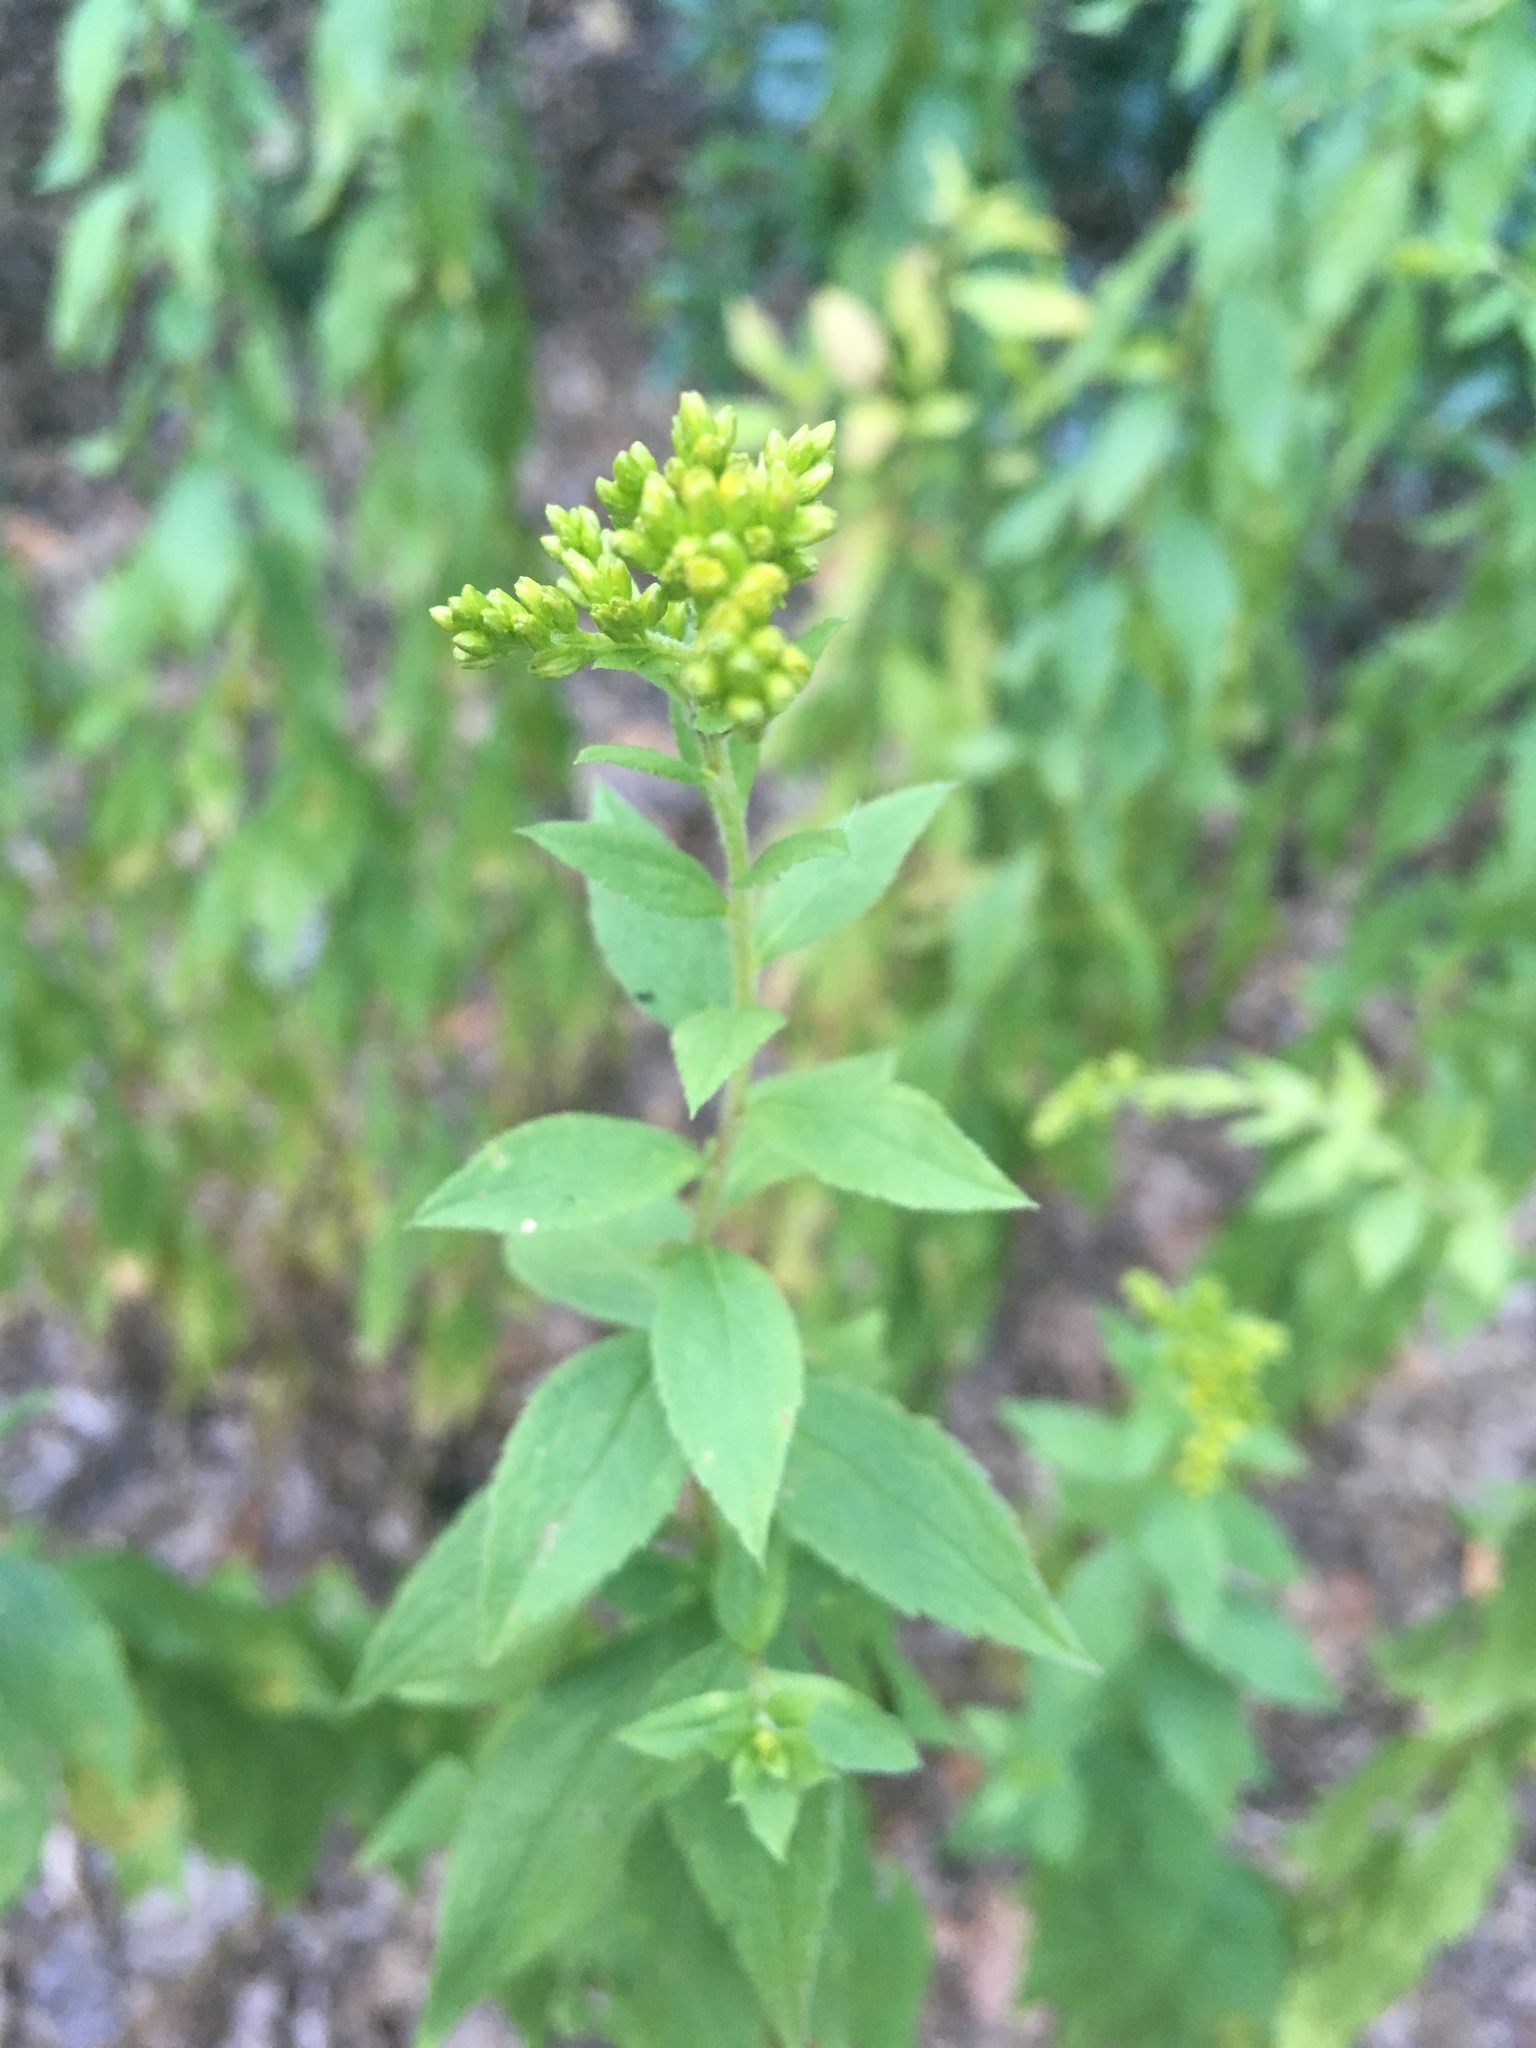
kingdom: Plantae
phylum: Tracheophyta
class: Magnoliopsida
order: Asterales
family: Asteraceae
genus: Solidago
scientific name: Solidago rugosa
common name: Rough-stemmed goldenrod
